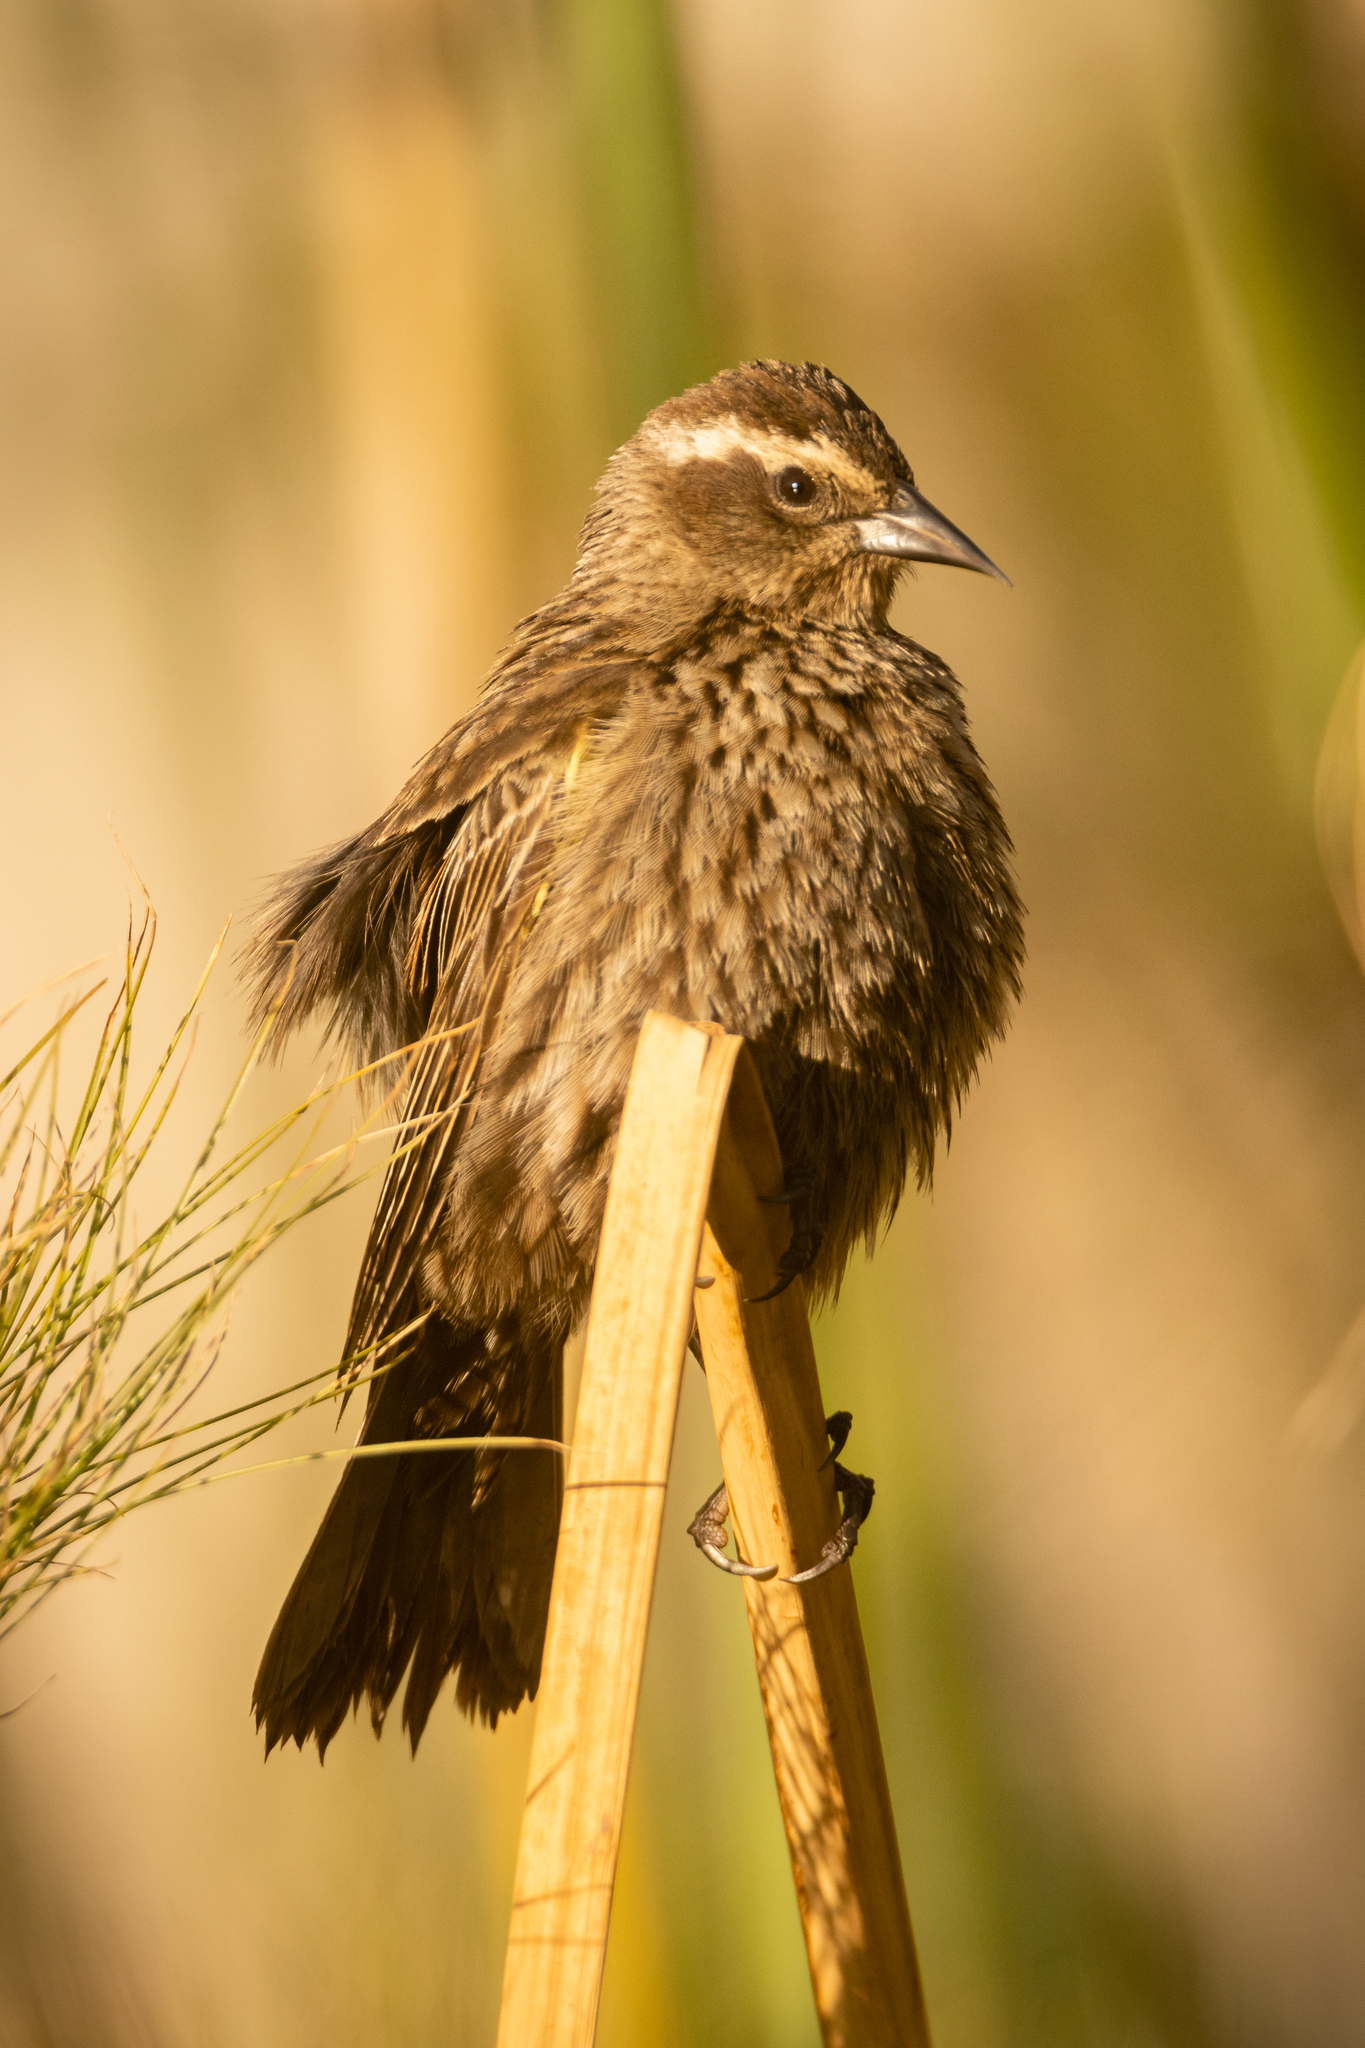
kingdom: Animalia
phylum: Chordata
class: Aves
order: Passeriformes
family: Icteridae
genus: Agelasticus
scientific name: Agelasticus thilius
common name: Yellow-winged blackbird
